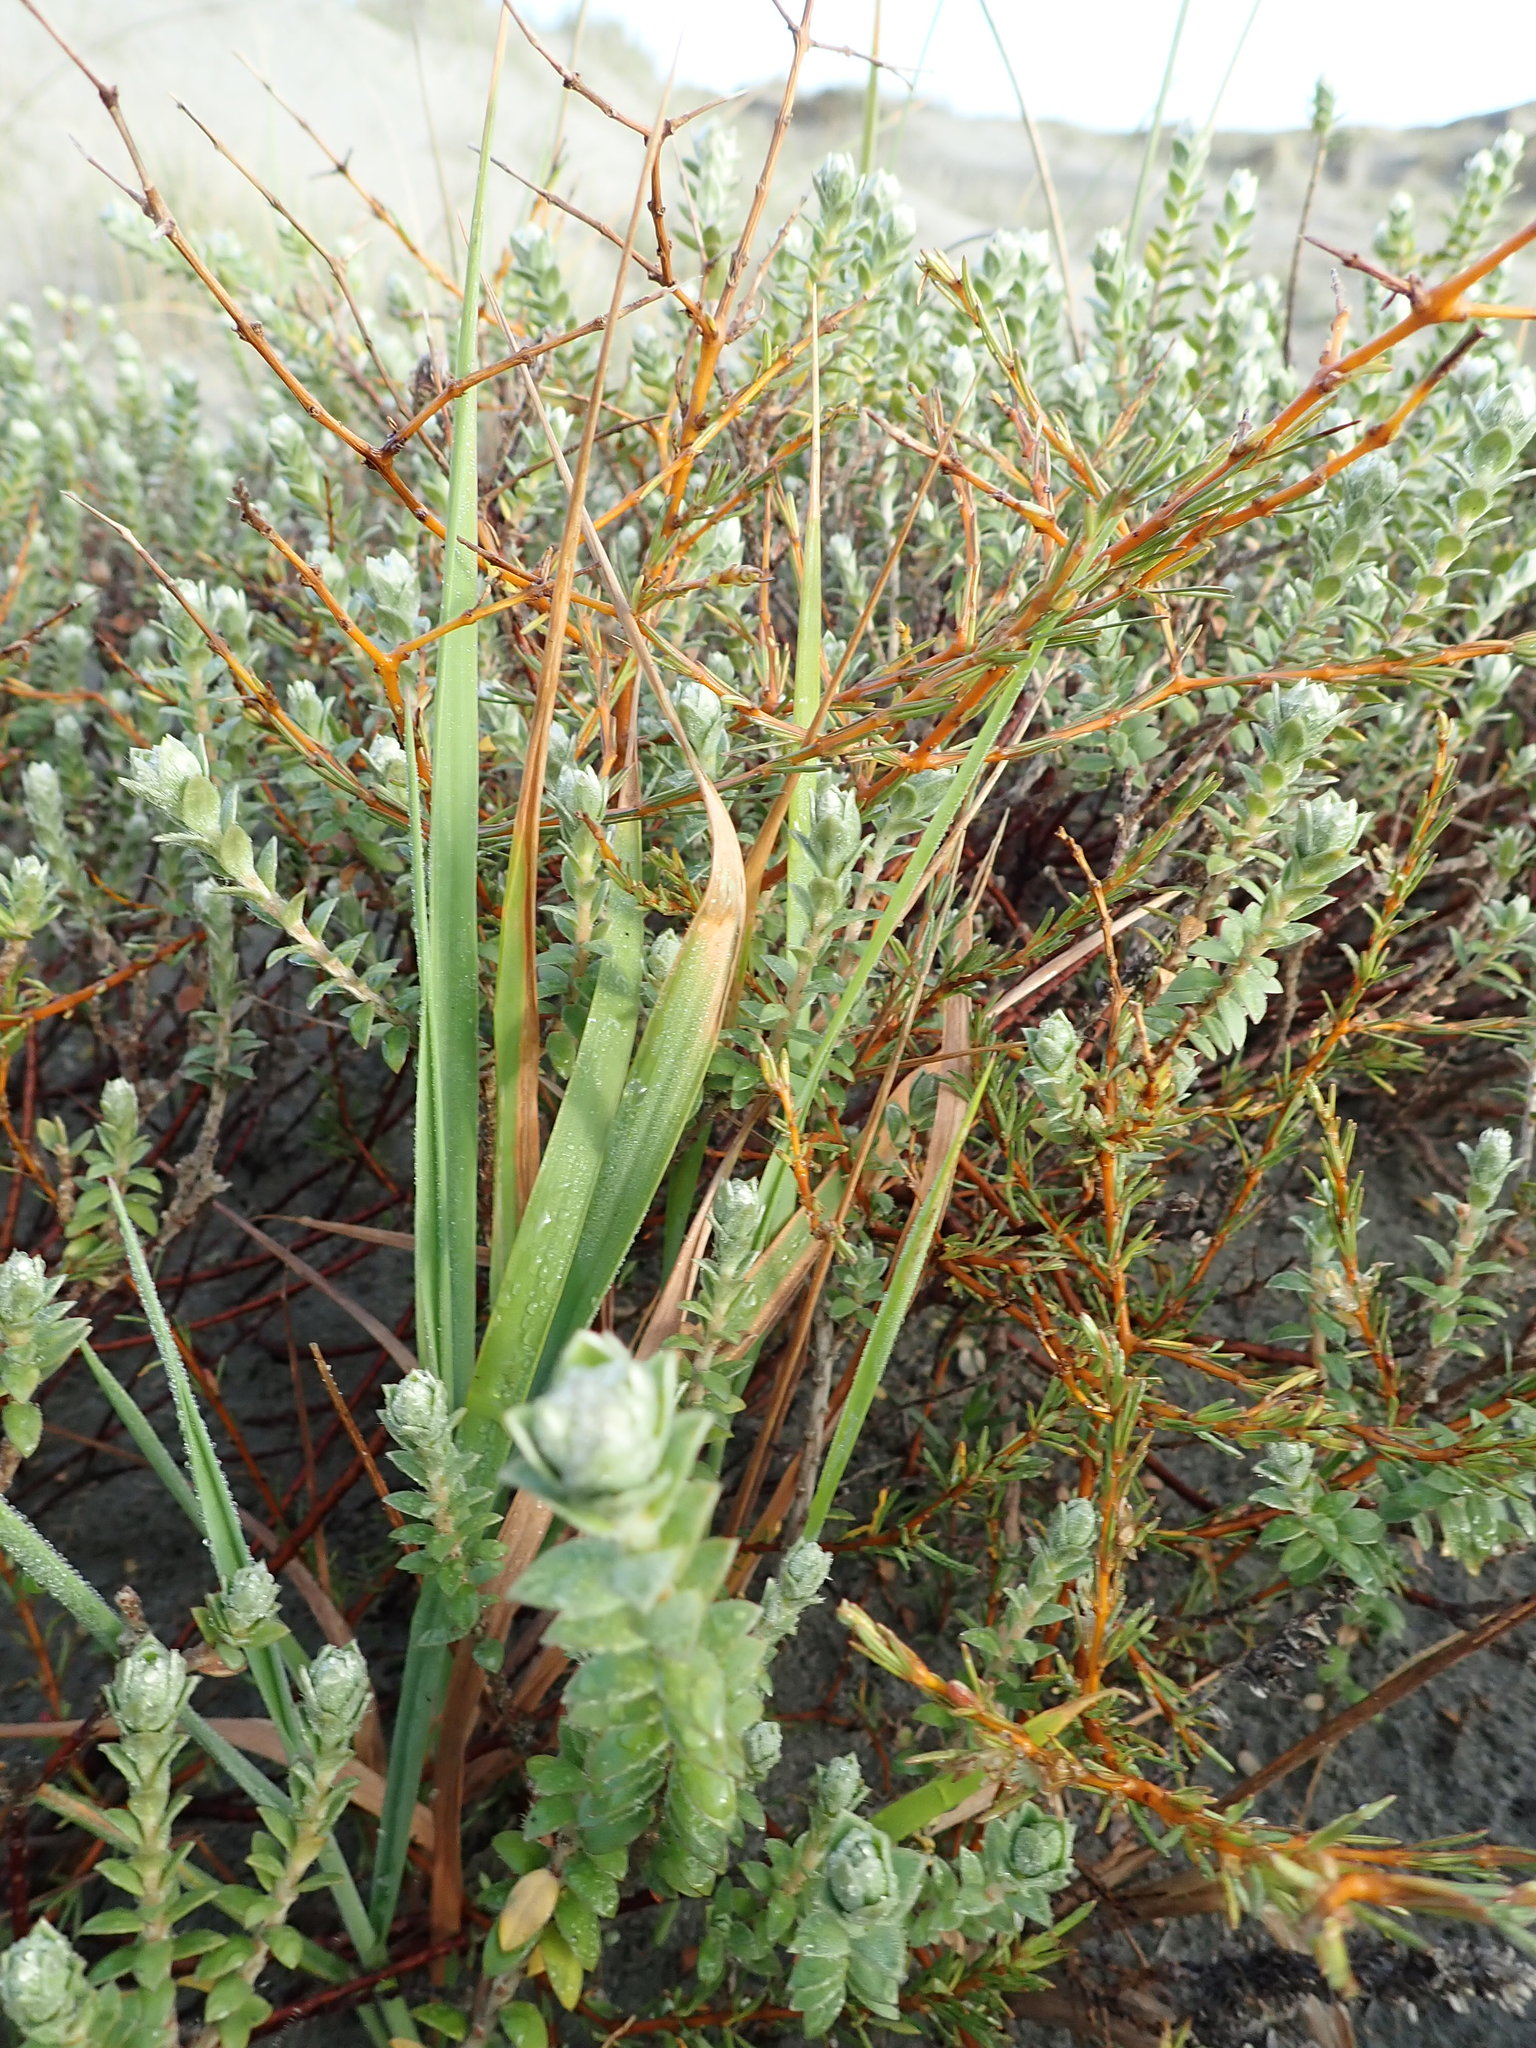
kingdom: Plantae
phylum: Tracheophyta
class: Magnoliopsida
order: Gentianales
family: Rubiaceae
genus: Coprosma
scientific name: Coprosma acerosa
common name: Sand coprosma
